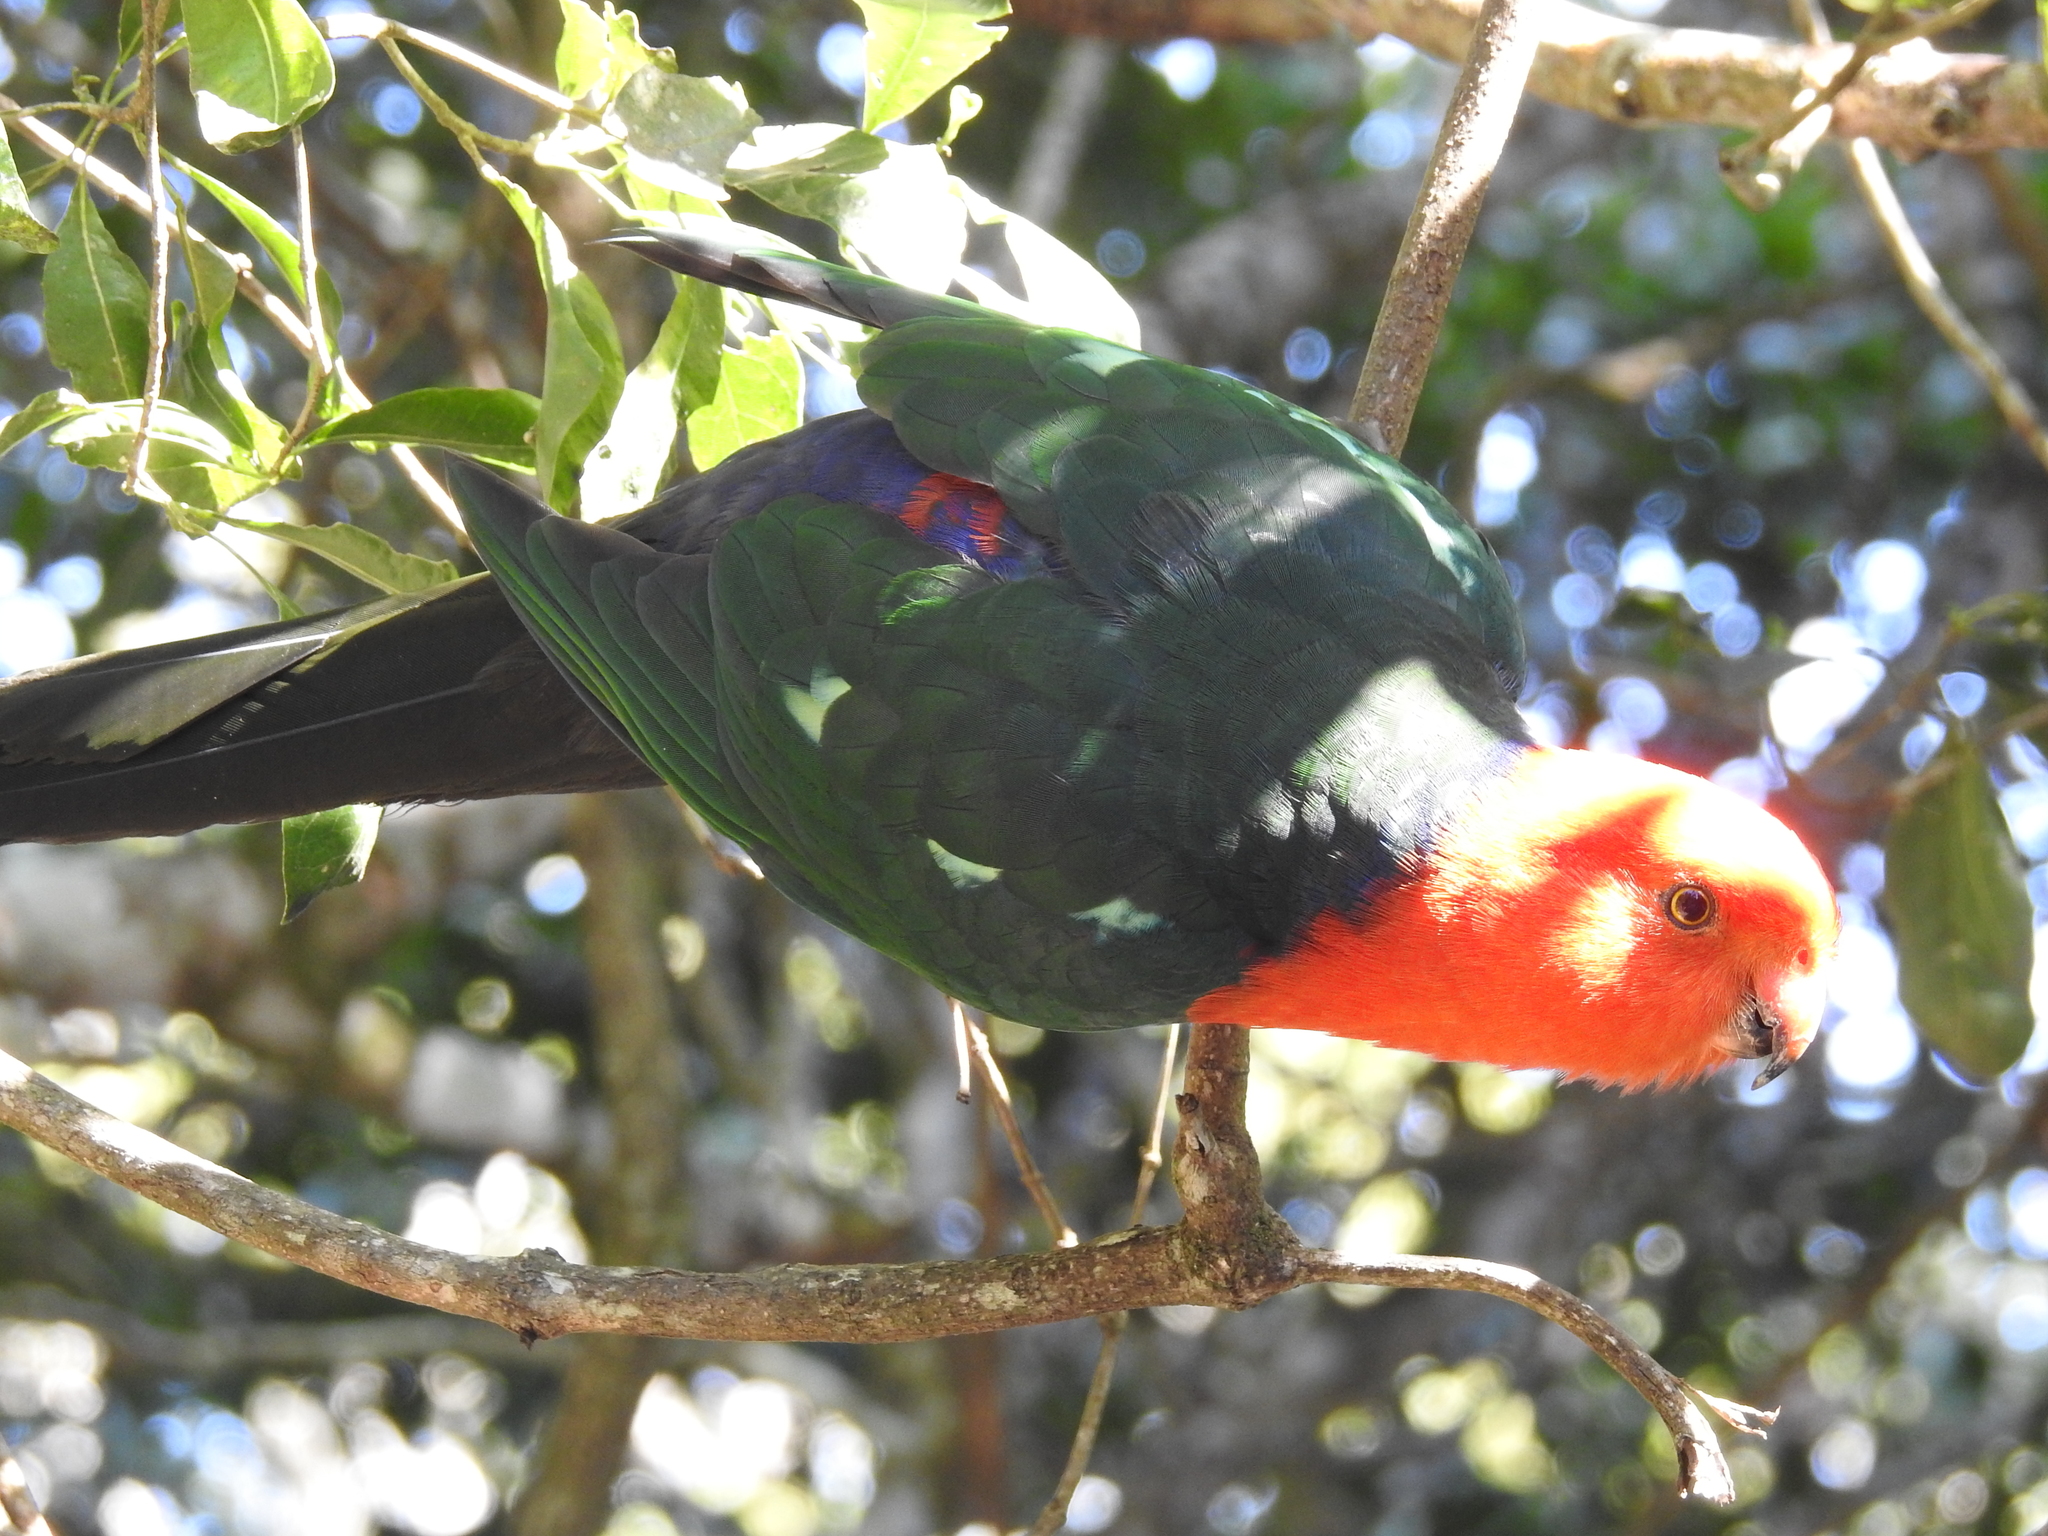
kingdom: Animalia
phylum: Chordata
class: Aves
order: Psittaciformes
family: Psittacidae
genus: Alisterus
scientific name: Alisterus scapularis
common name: Australian king parrot
